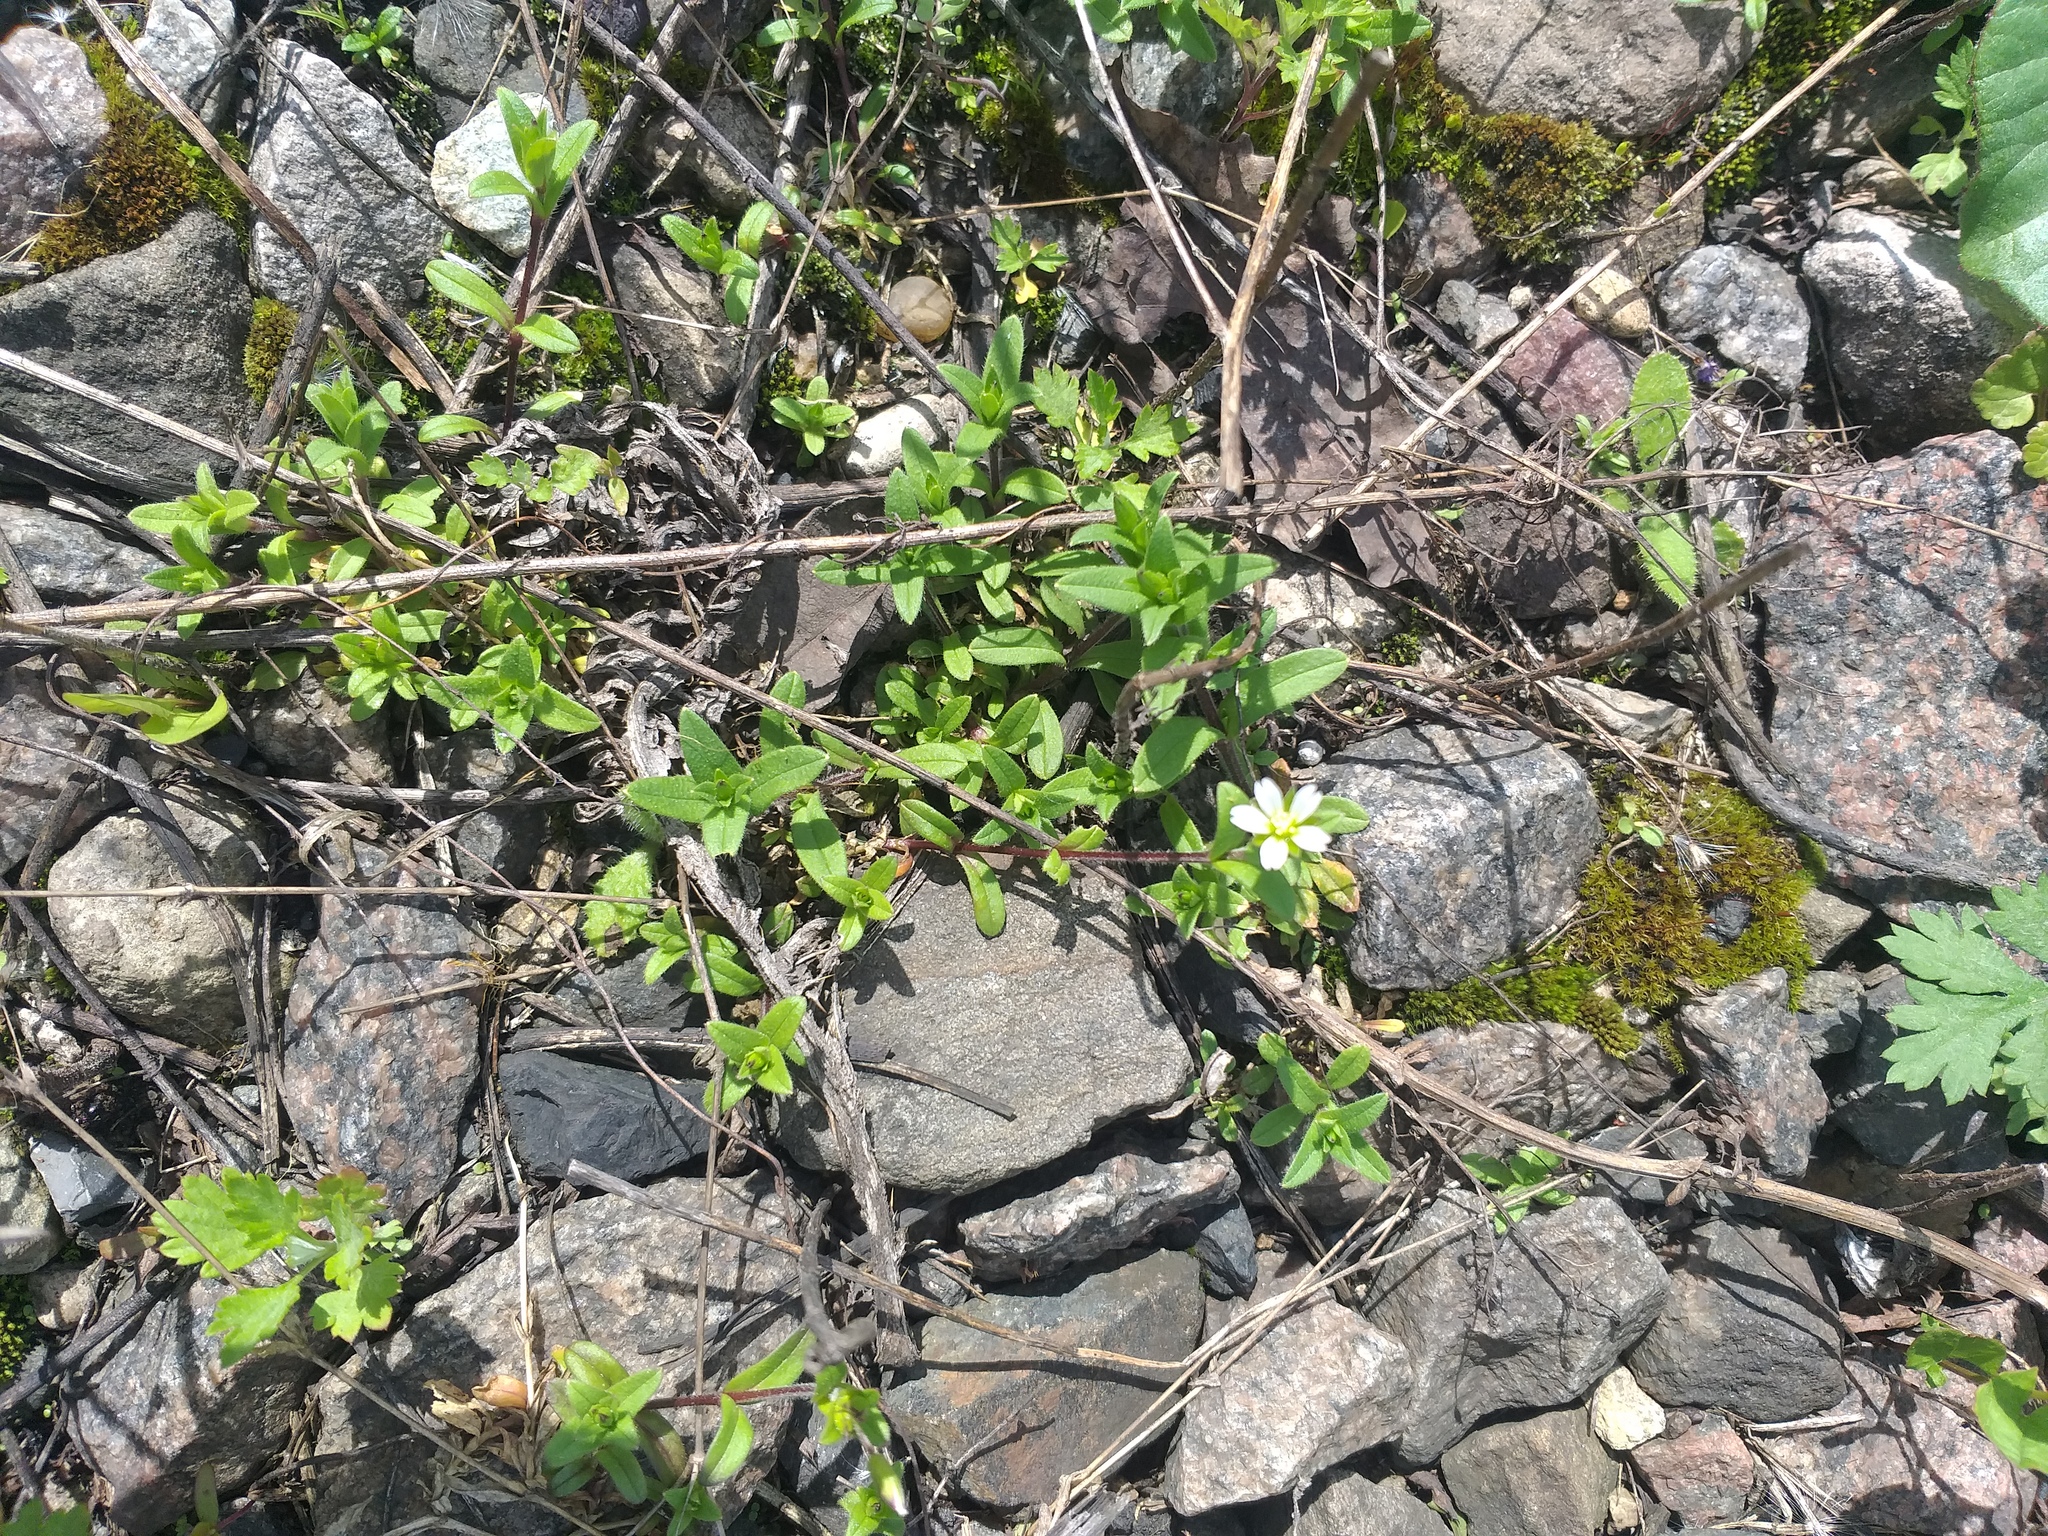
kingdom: Plantae
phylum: Tracheophyta
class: Magnoliopsida
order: Caryophyllales
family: Caryophyllaceae
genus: Cerastium
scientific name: Cerastium holosteoides
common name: Big chickweed
